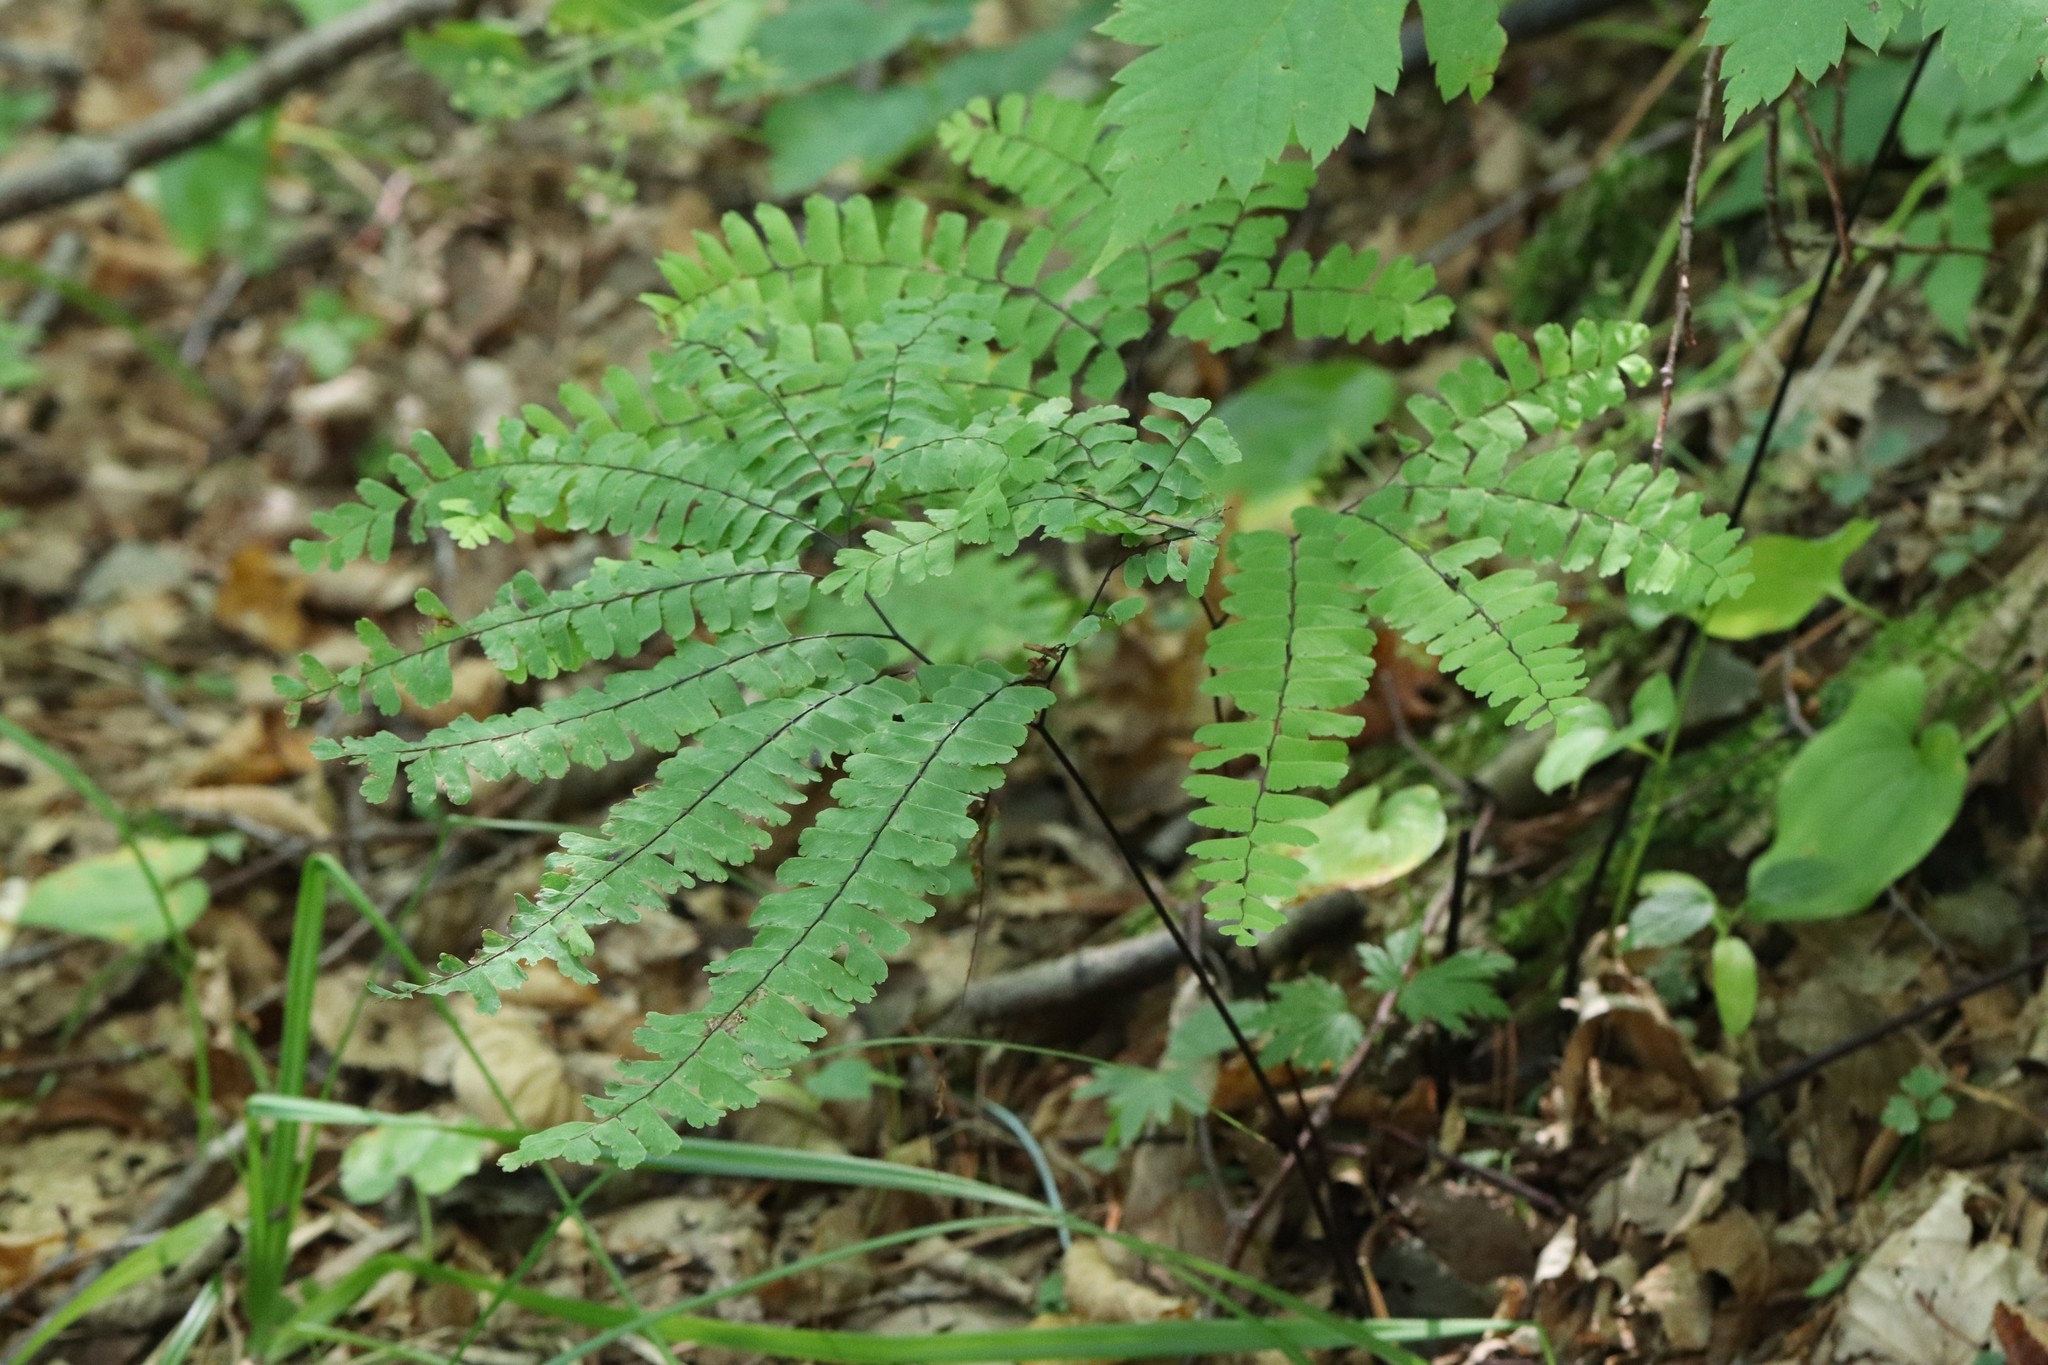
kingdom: Plantae
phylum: Tracheophyta
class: Polypodiopsida
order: Polypodiales
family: Pteridaceae
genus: Adiantum
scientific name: Adiantum pedatum
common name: Five-finger fern
